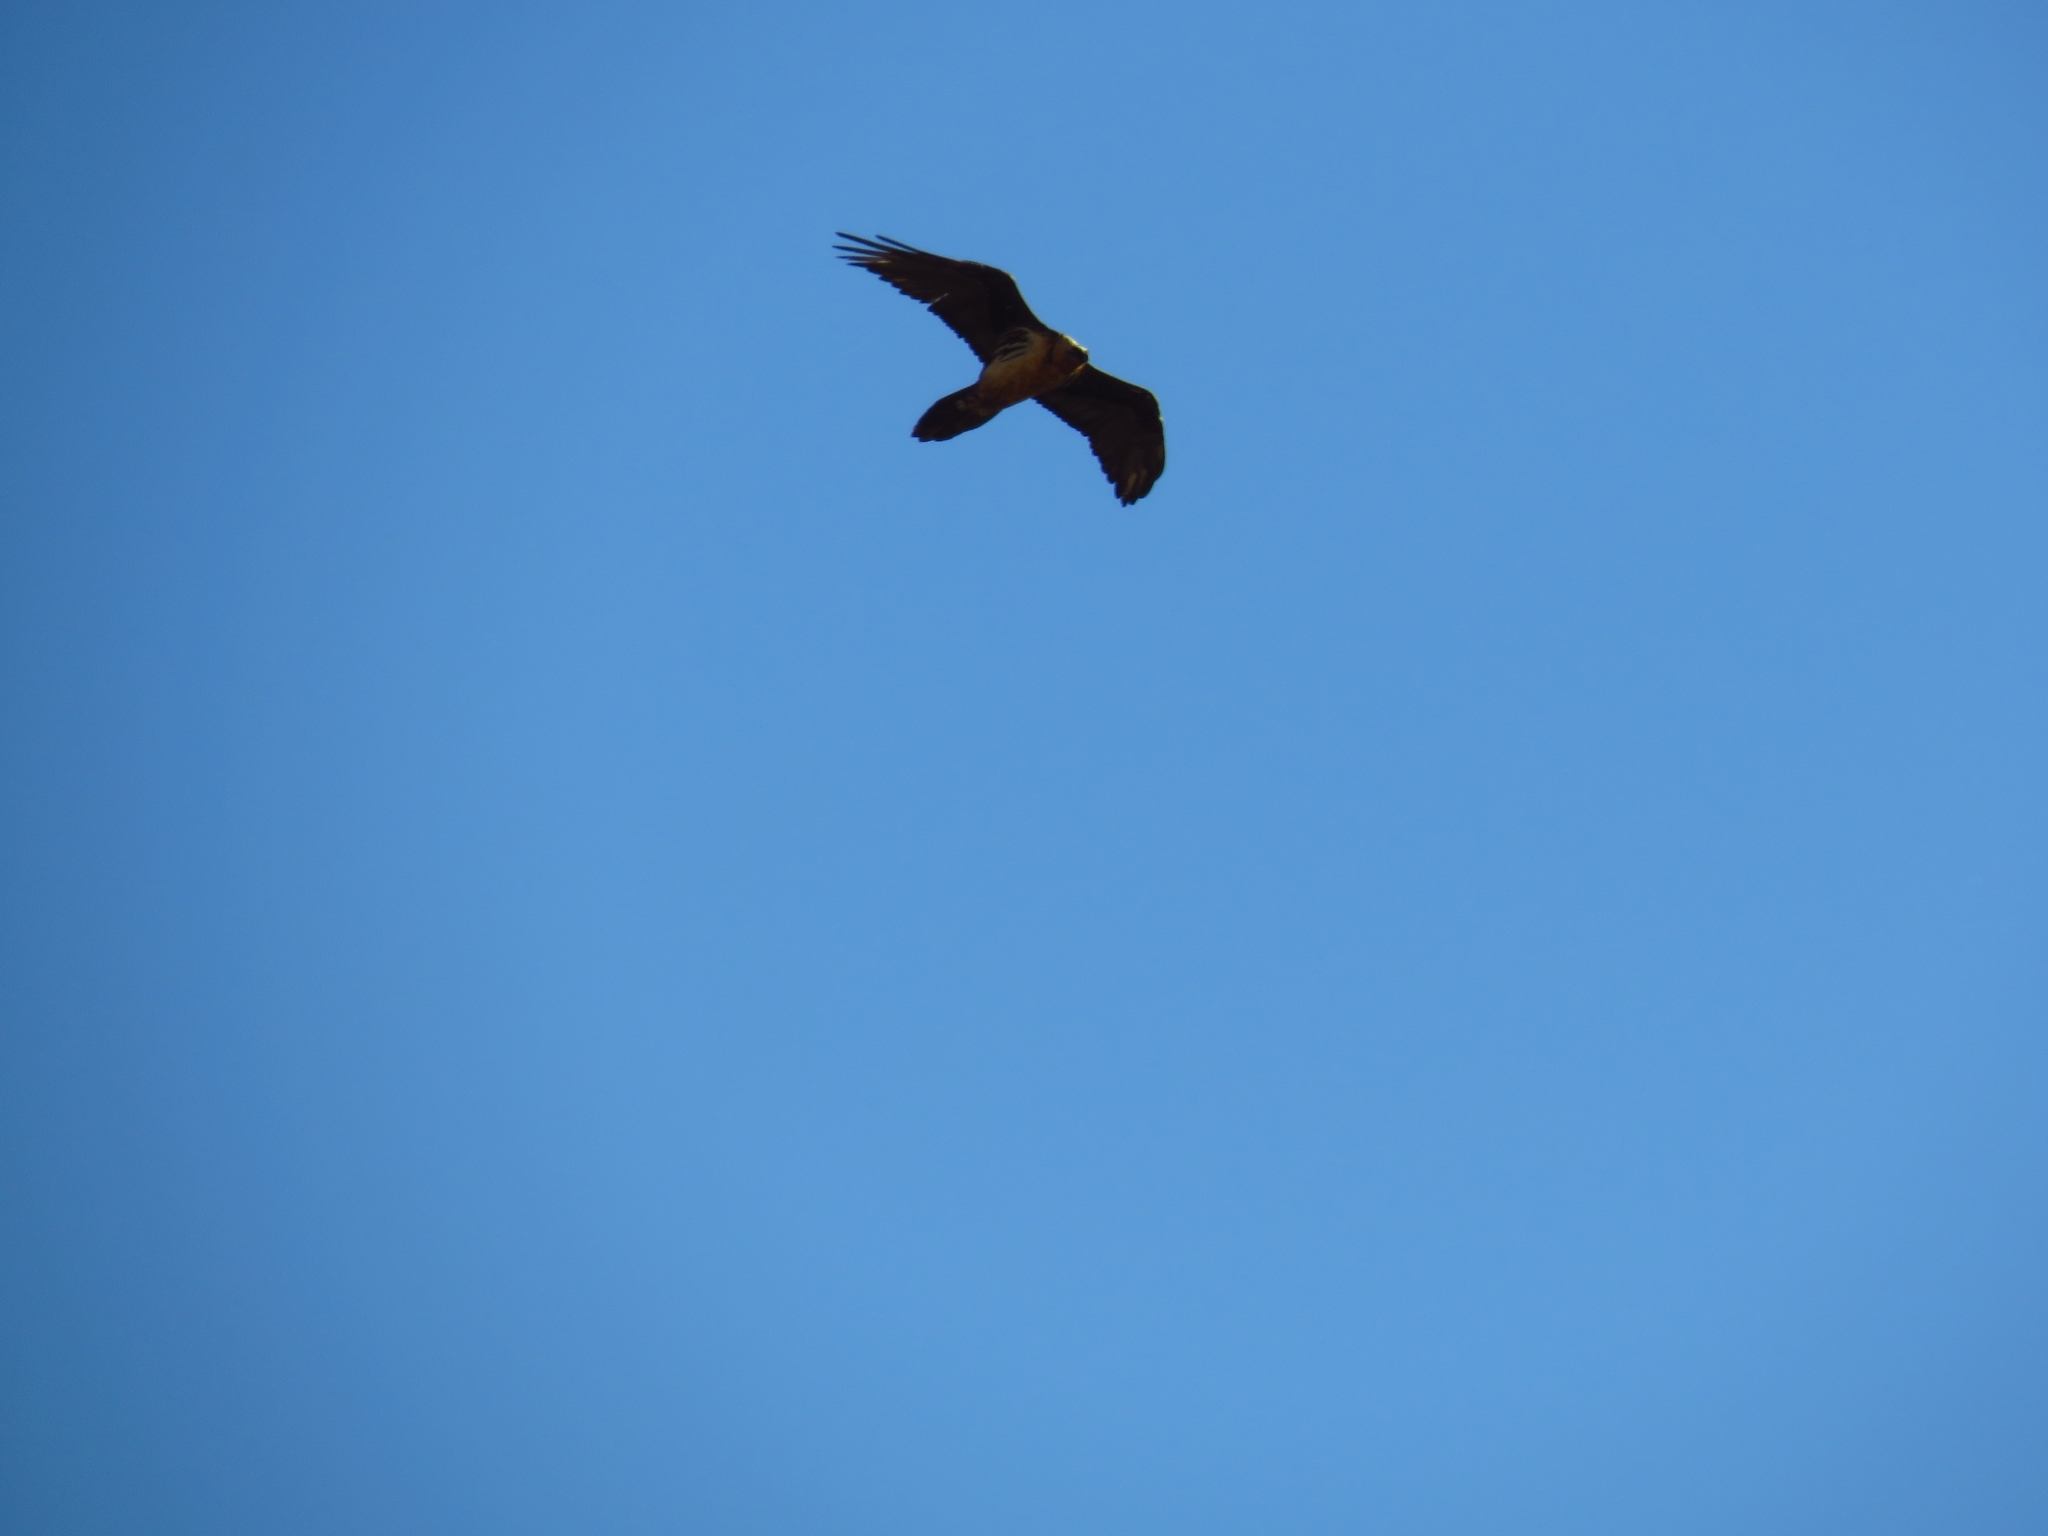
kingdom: Animalia
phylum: Chordata
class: Aves
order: Accipitriformes
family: Accipitridae
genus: Gypaetus
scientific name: Gypaetus barbatus
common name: Bearded vulture
